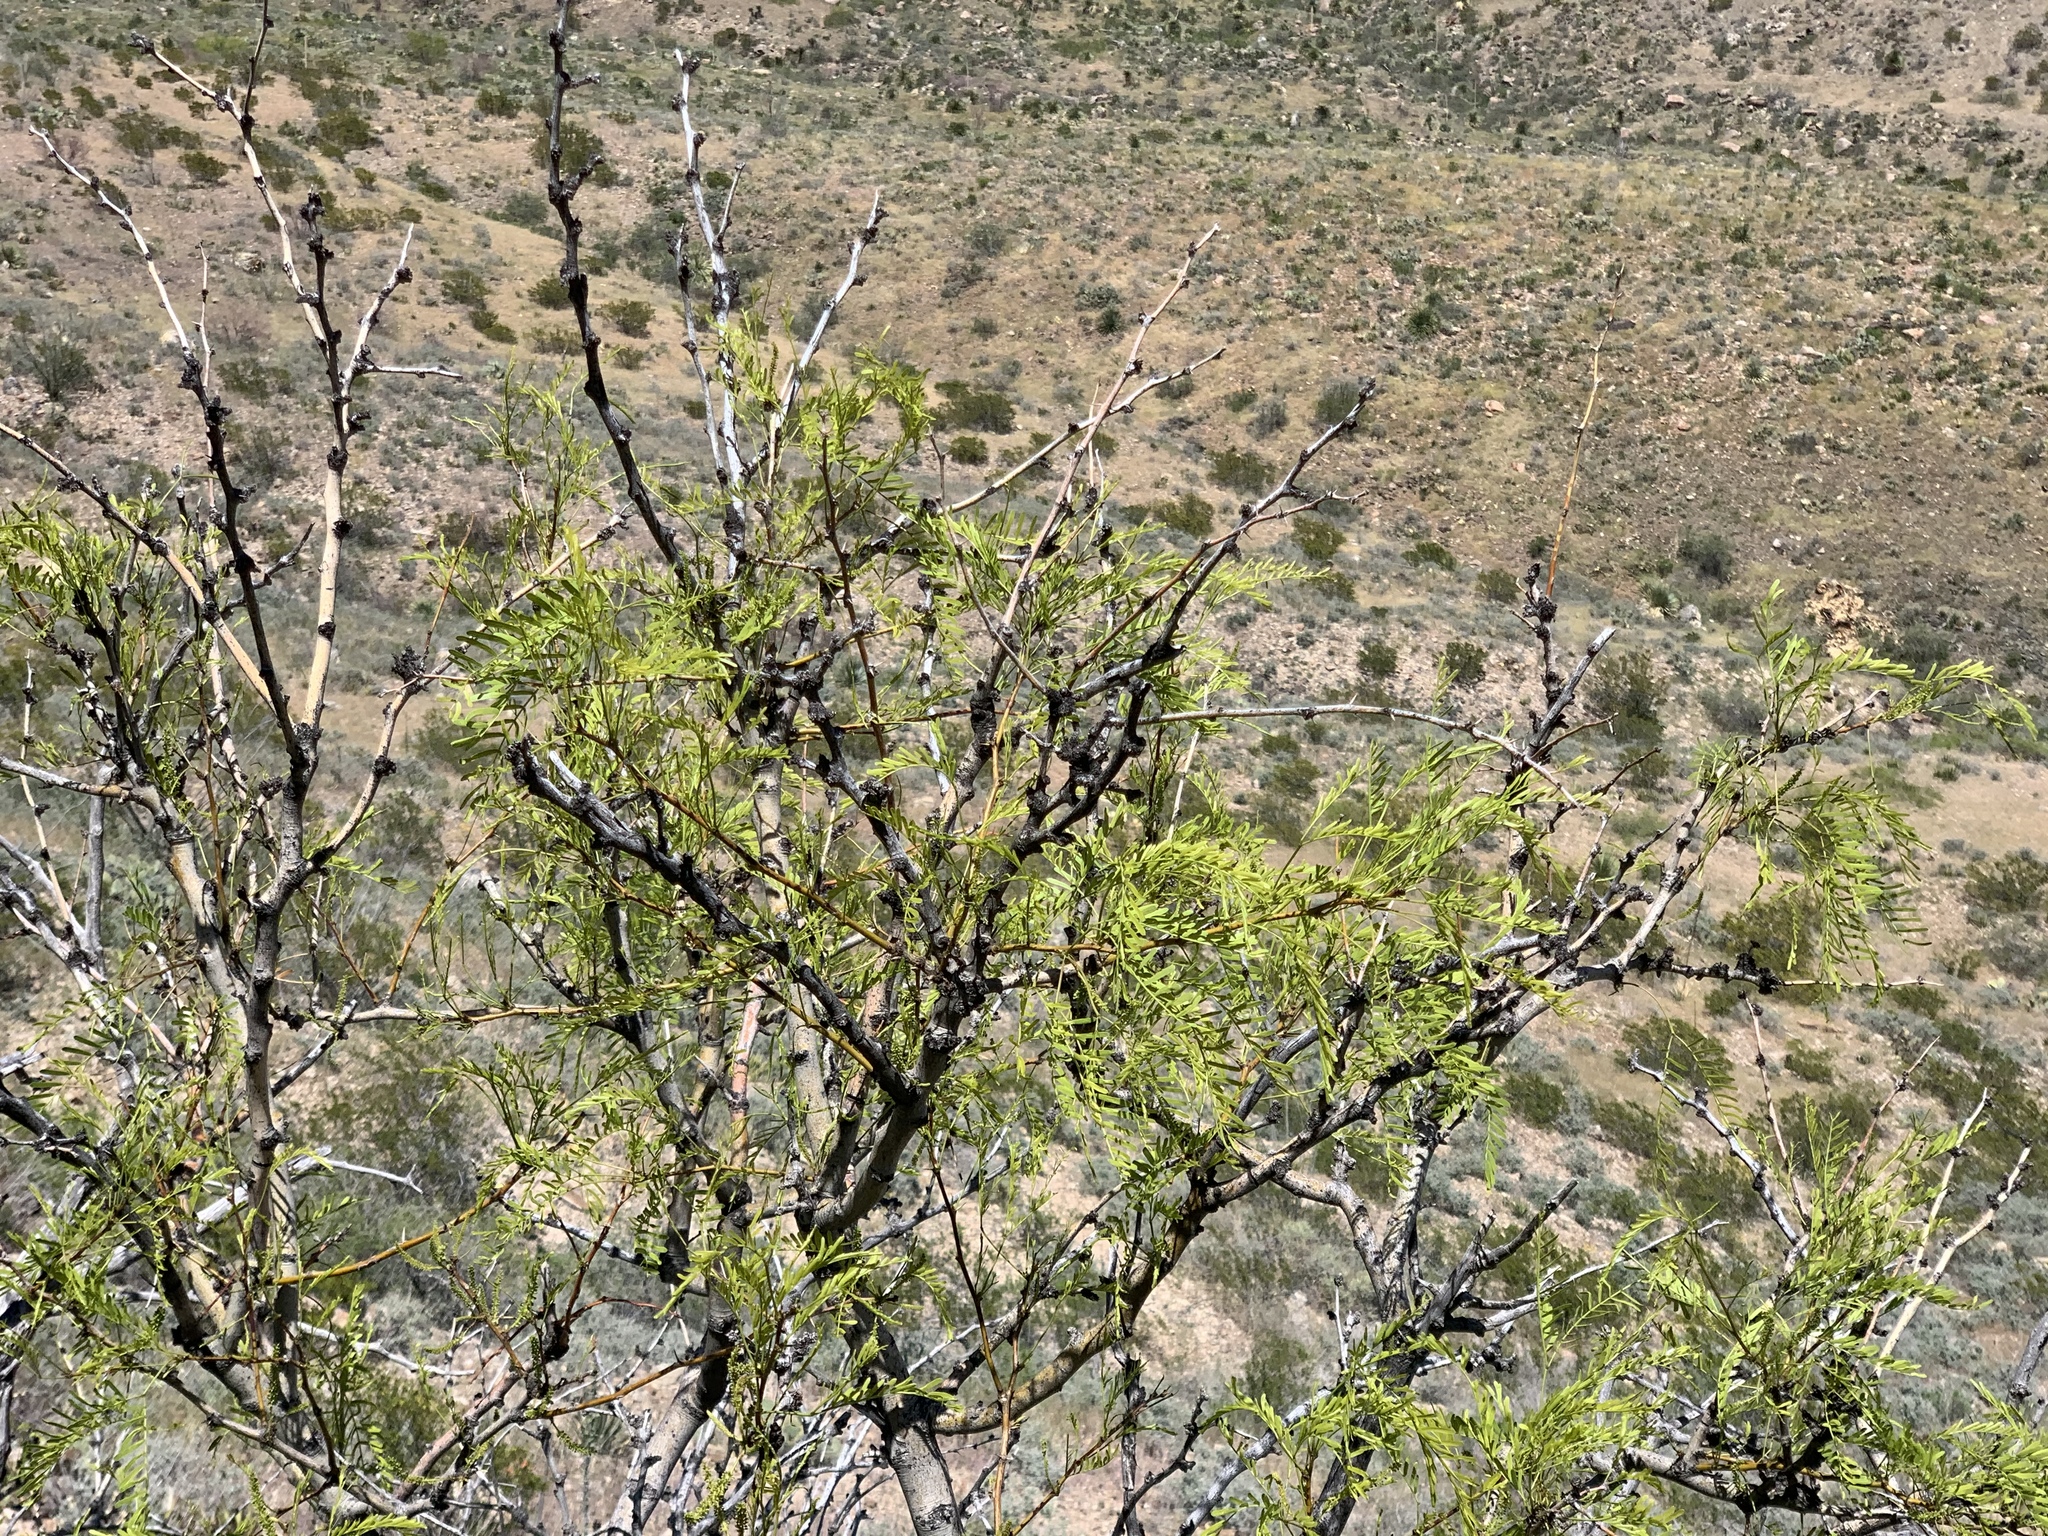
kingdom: Plantae
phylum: Tracheophyta
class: Magnoliopsida
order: Fabales
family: Fabaceae
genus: Prosopis
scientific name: Prosopis glandulosa
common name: Honey mesquite
